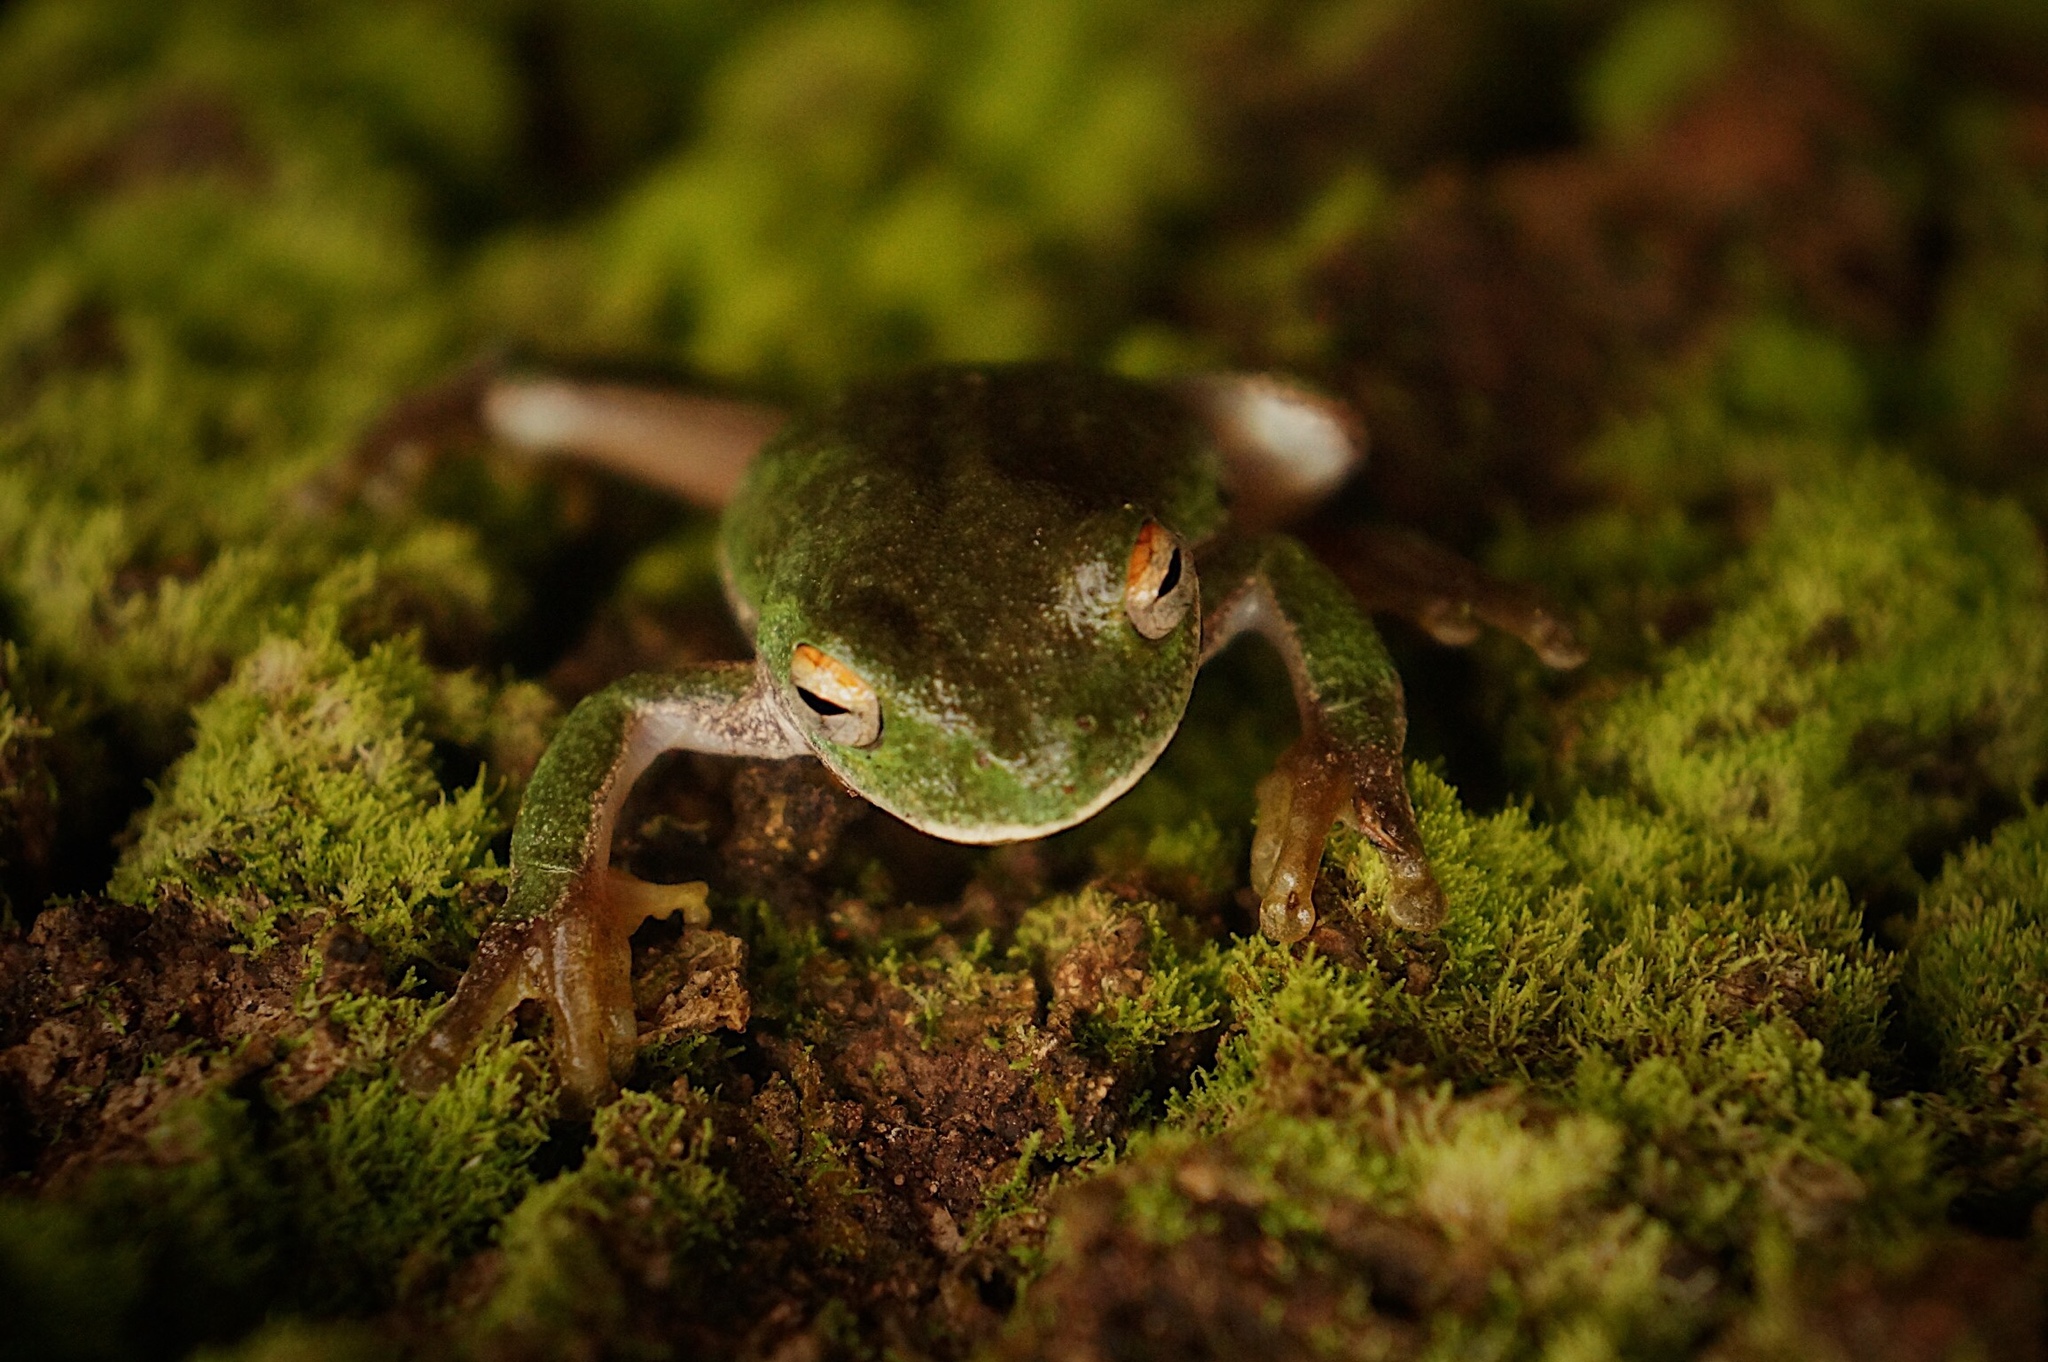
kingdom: Animalia
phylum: Chordata
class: Amphibia
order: Anura
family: Hylidae
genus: Rheohyla
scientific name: Rheohyla miotympanum
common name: Small-eard hyla
